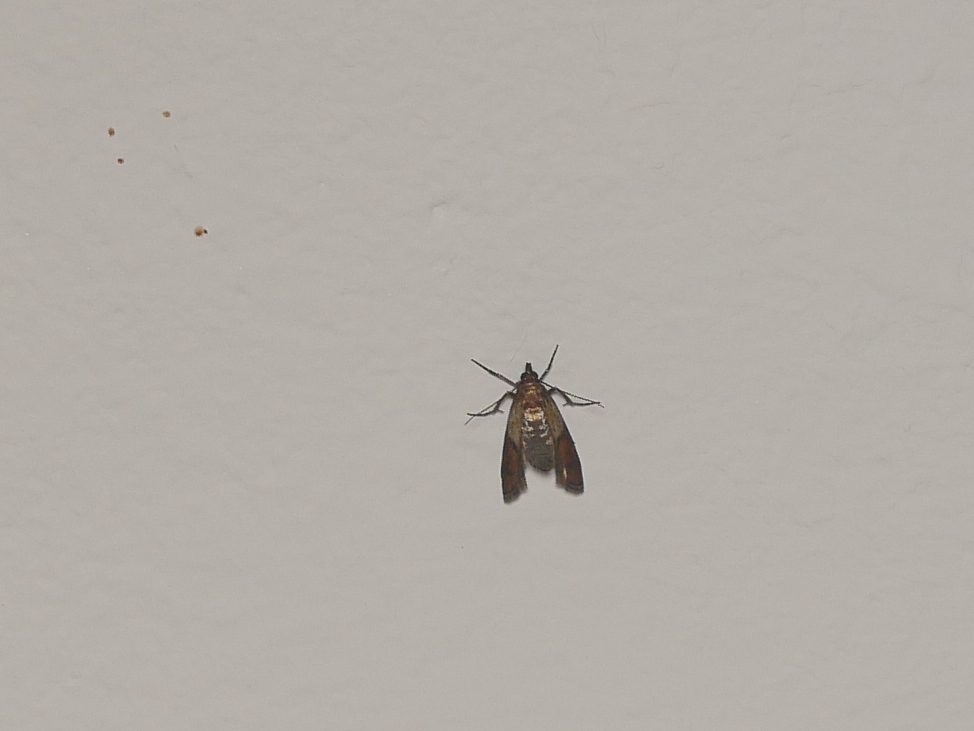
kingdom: Animalia
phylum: Arthropoda
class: Insecta
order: Lepidoptera
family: Pyralidae
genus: Plodia
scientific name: Plodia interpunctella
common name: Indian meal moth
